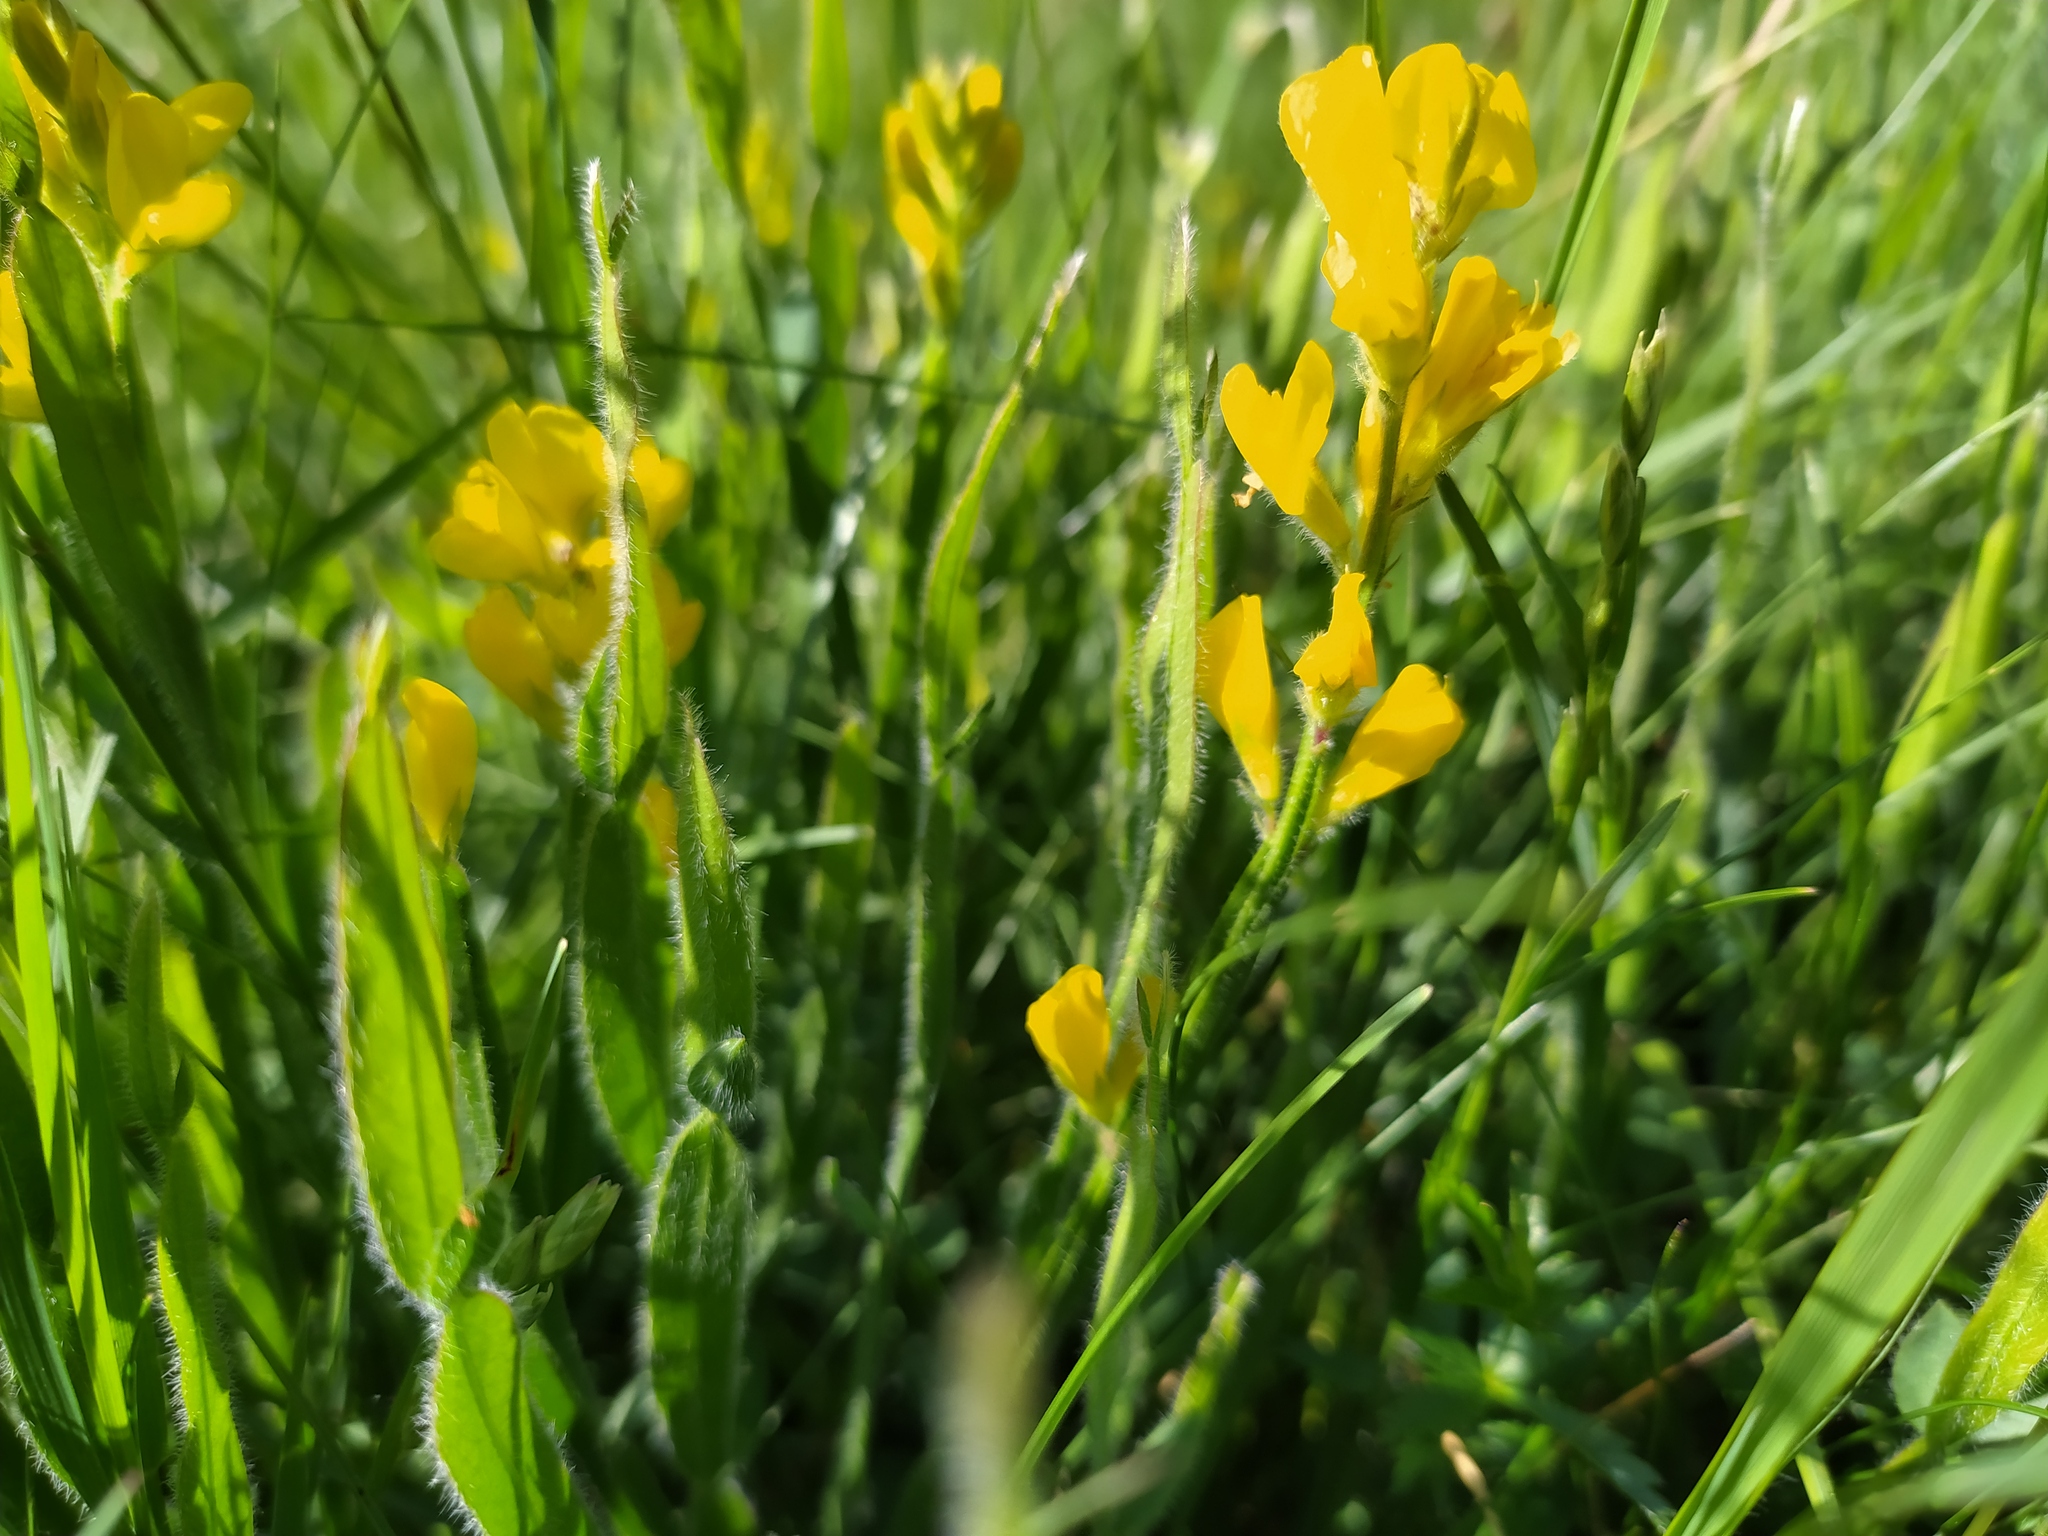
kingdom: Plantae
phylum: Tracheophyta
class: Magnoliopsida
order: Fabales
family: Fabaceae
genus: Genista
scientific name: Genista sagittalis
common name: Winged greenweed
